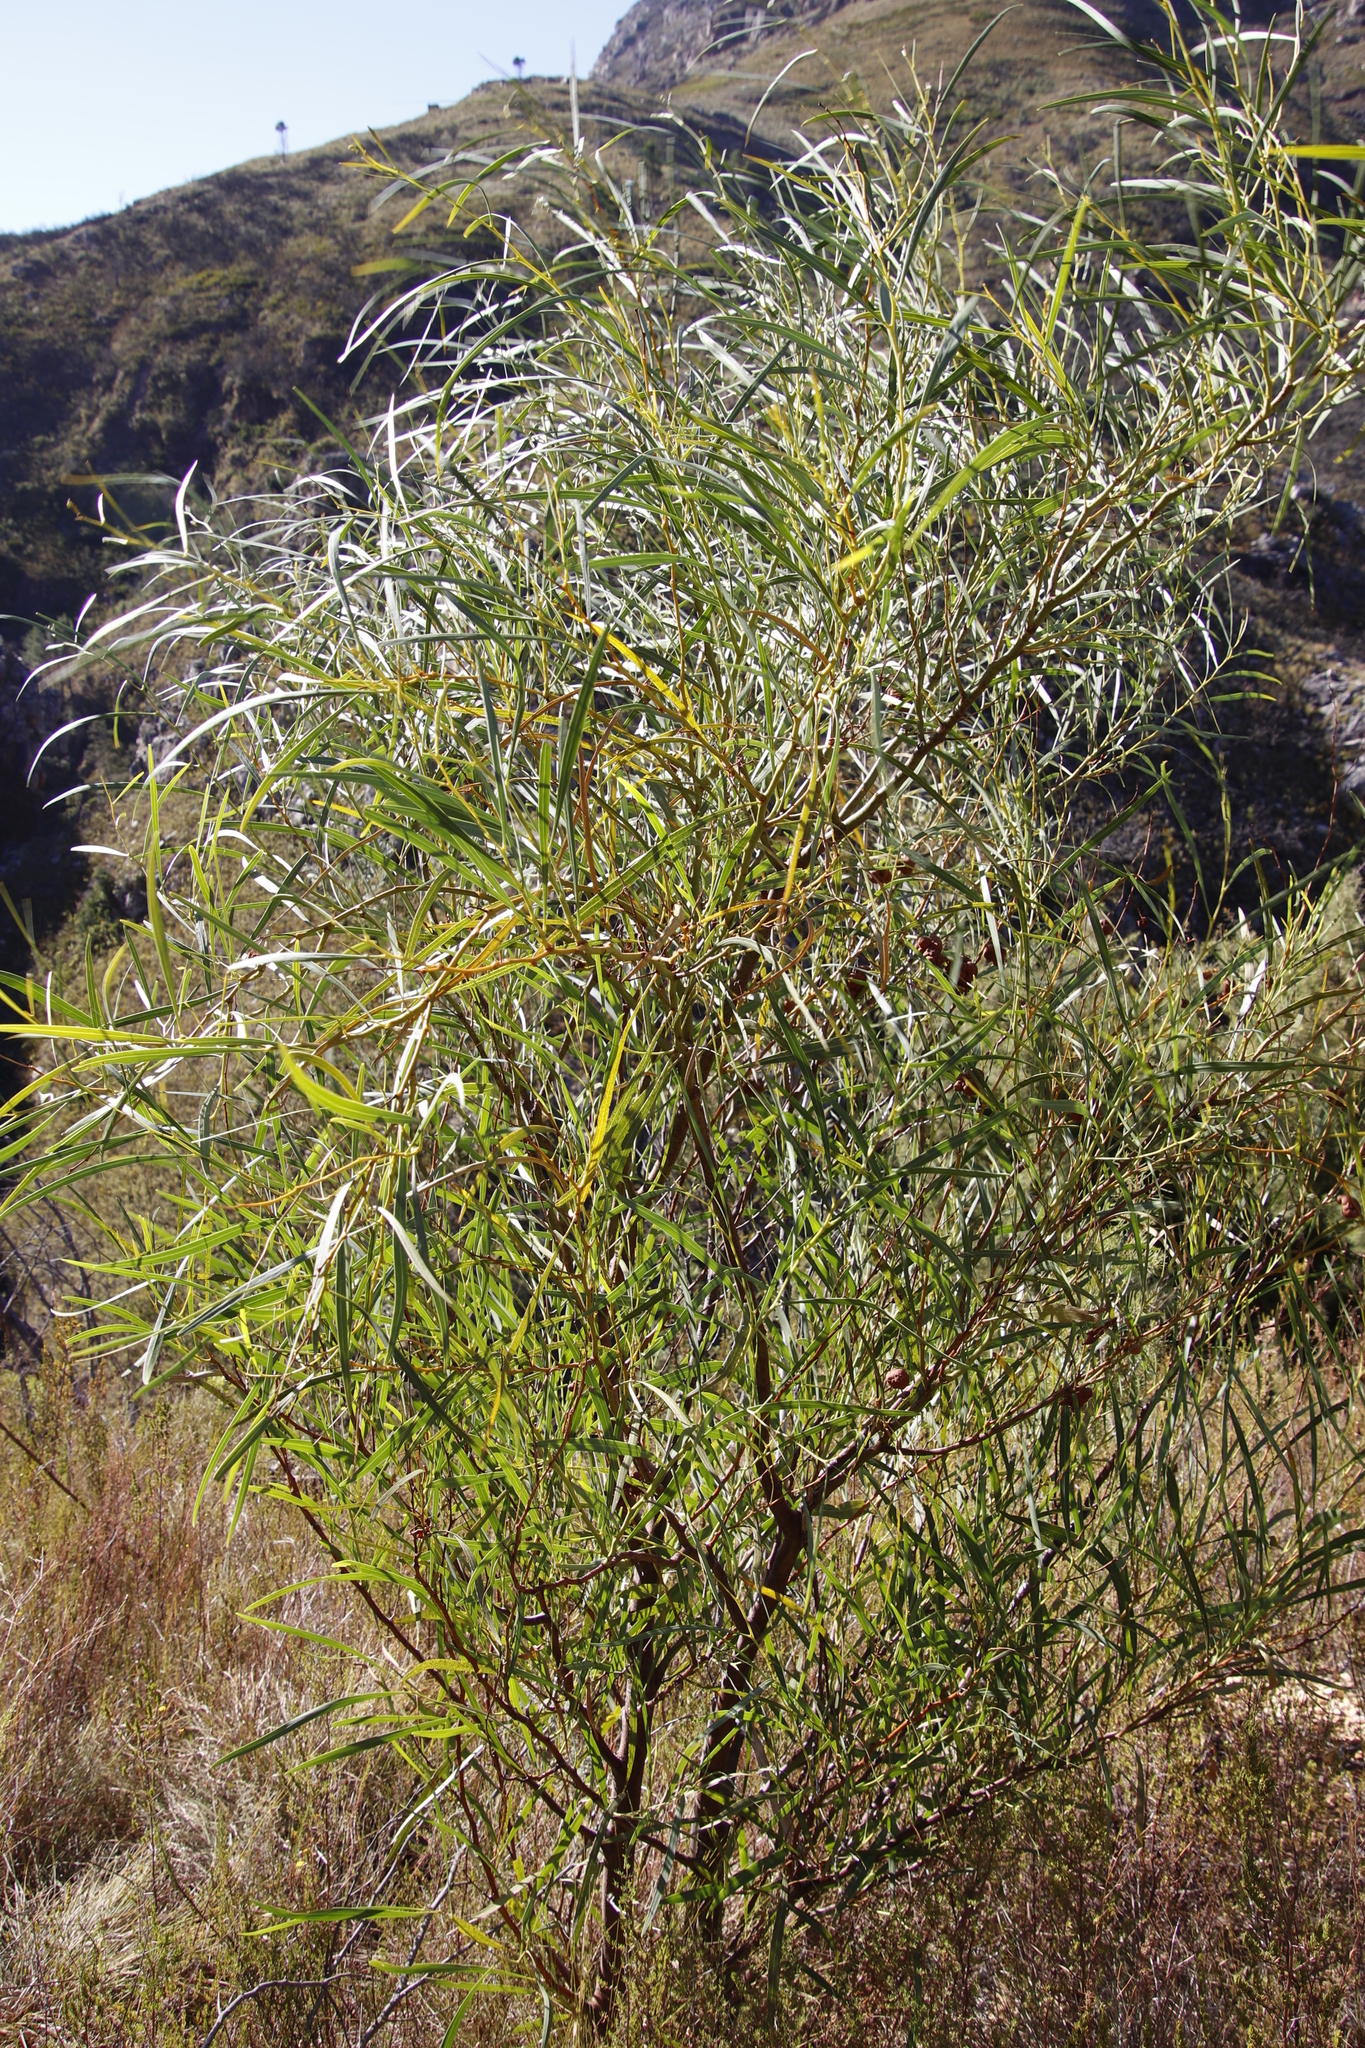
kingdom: Plantae
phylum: Tracheophyta
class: Magnoliopsida
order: Fabales
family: Fabaceae
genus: Acacia
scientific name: Acacia saligna
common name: Orange wattle
